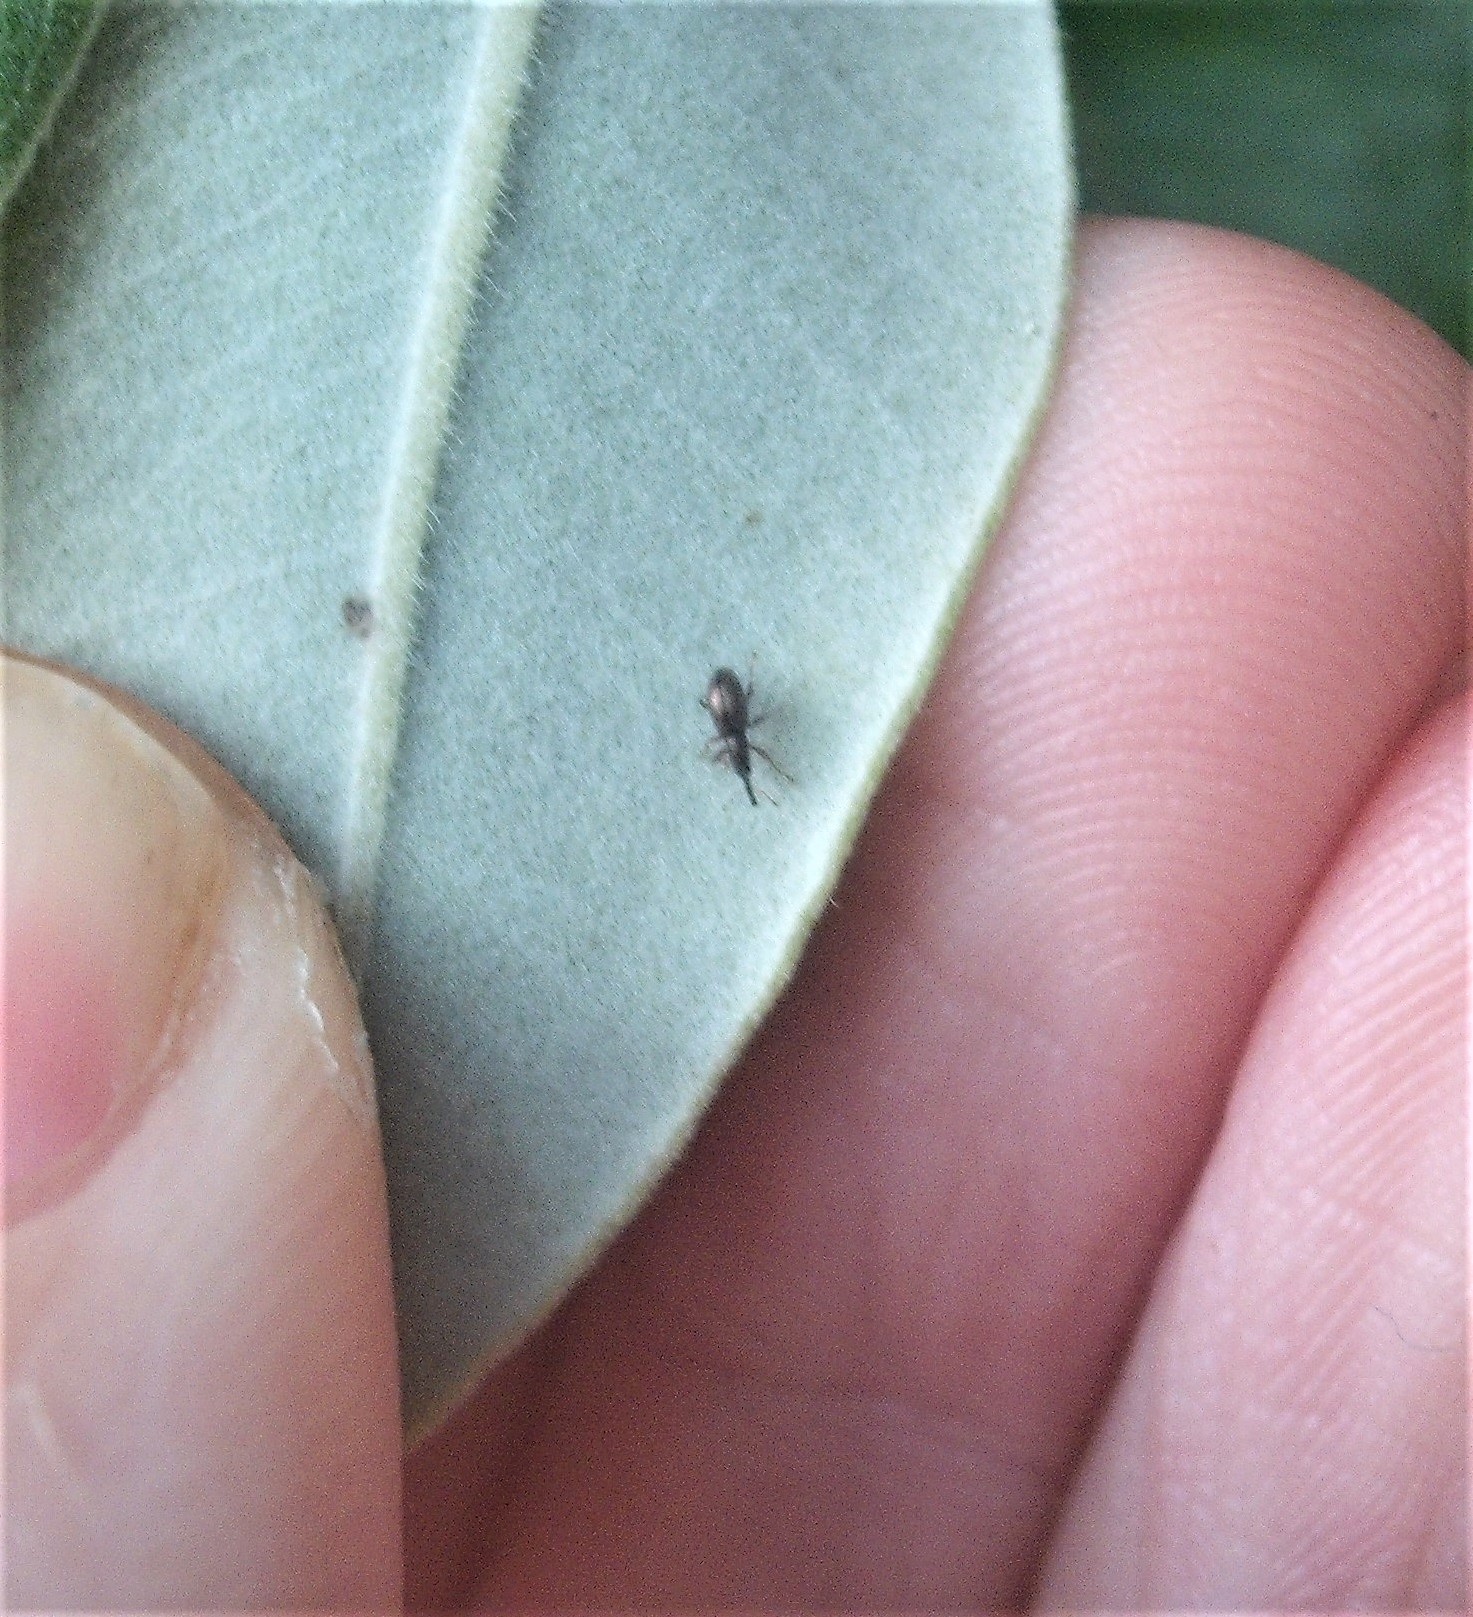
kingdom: Animalia
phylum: Arthropoda
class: Insecta
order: Coleoptera
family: Brentidae
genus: Neocyba
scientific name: Neocyba metrosideros
